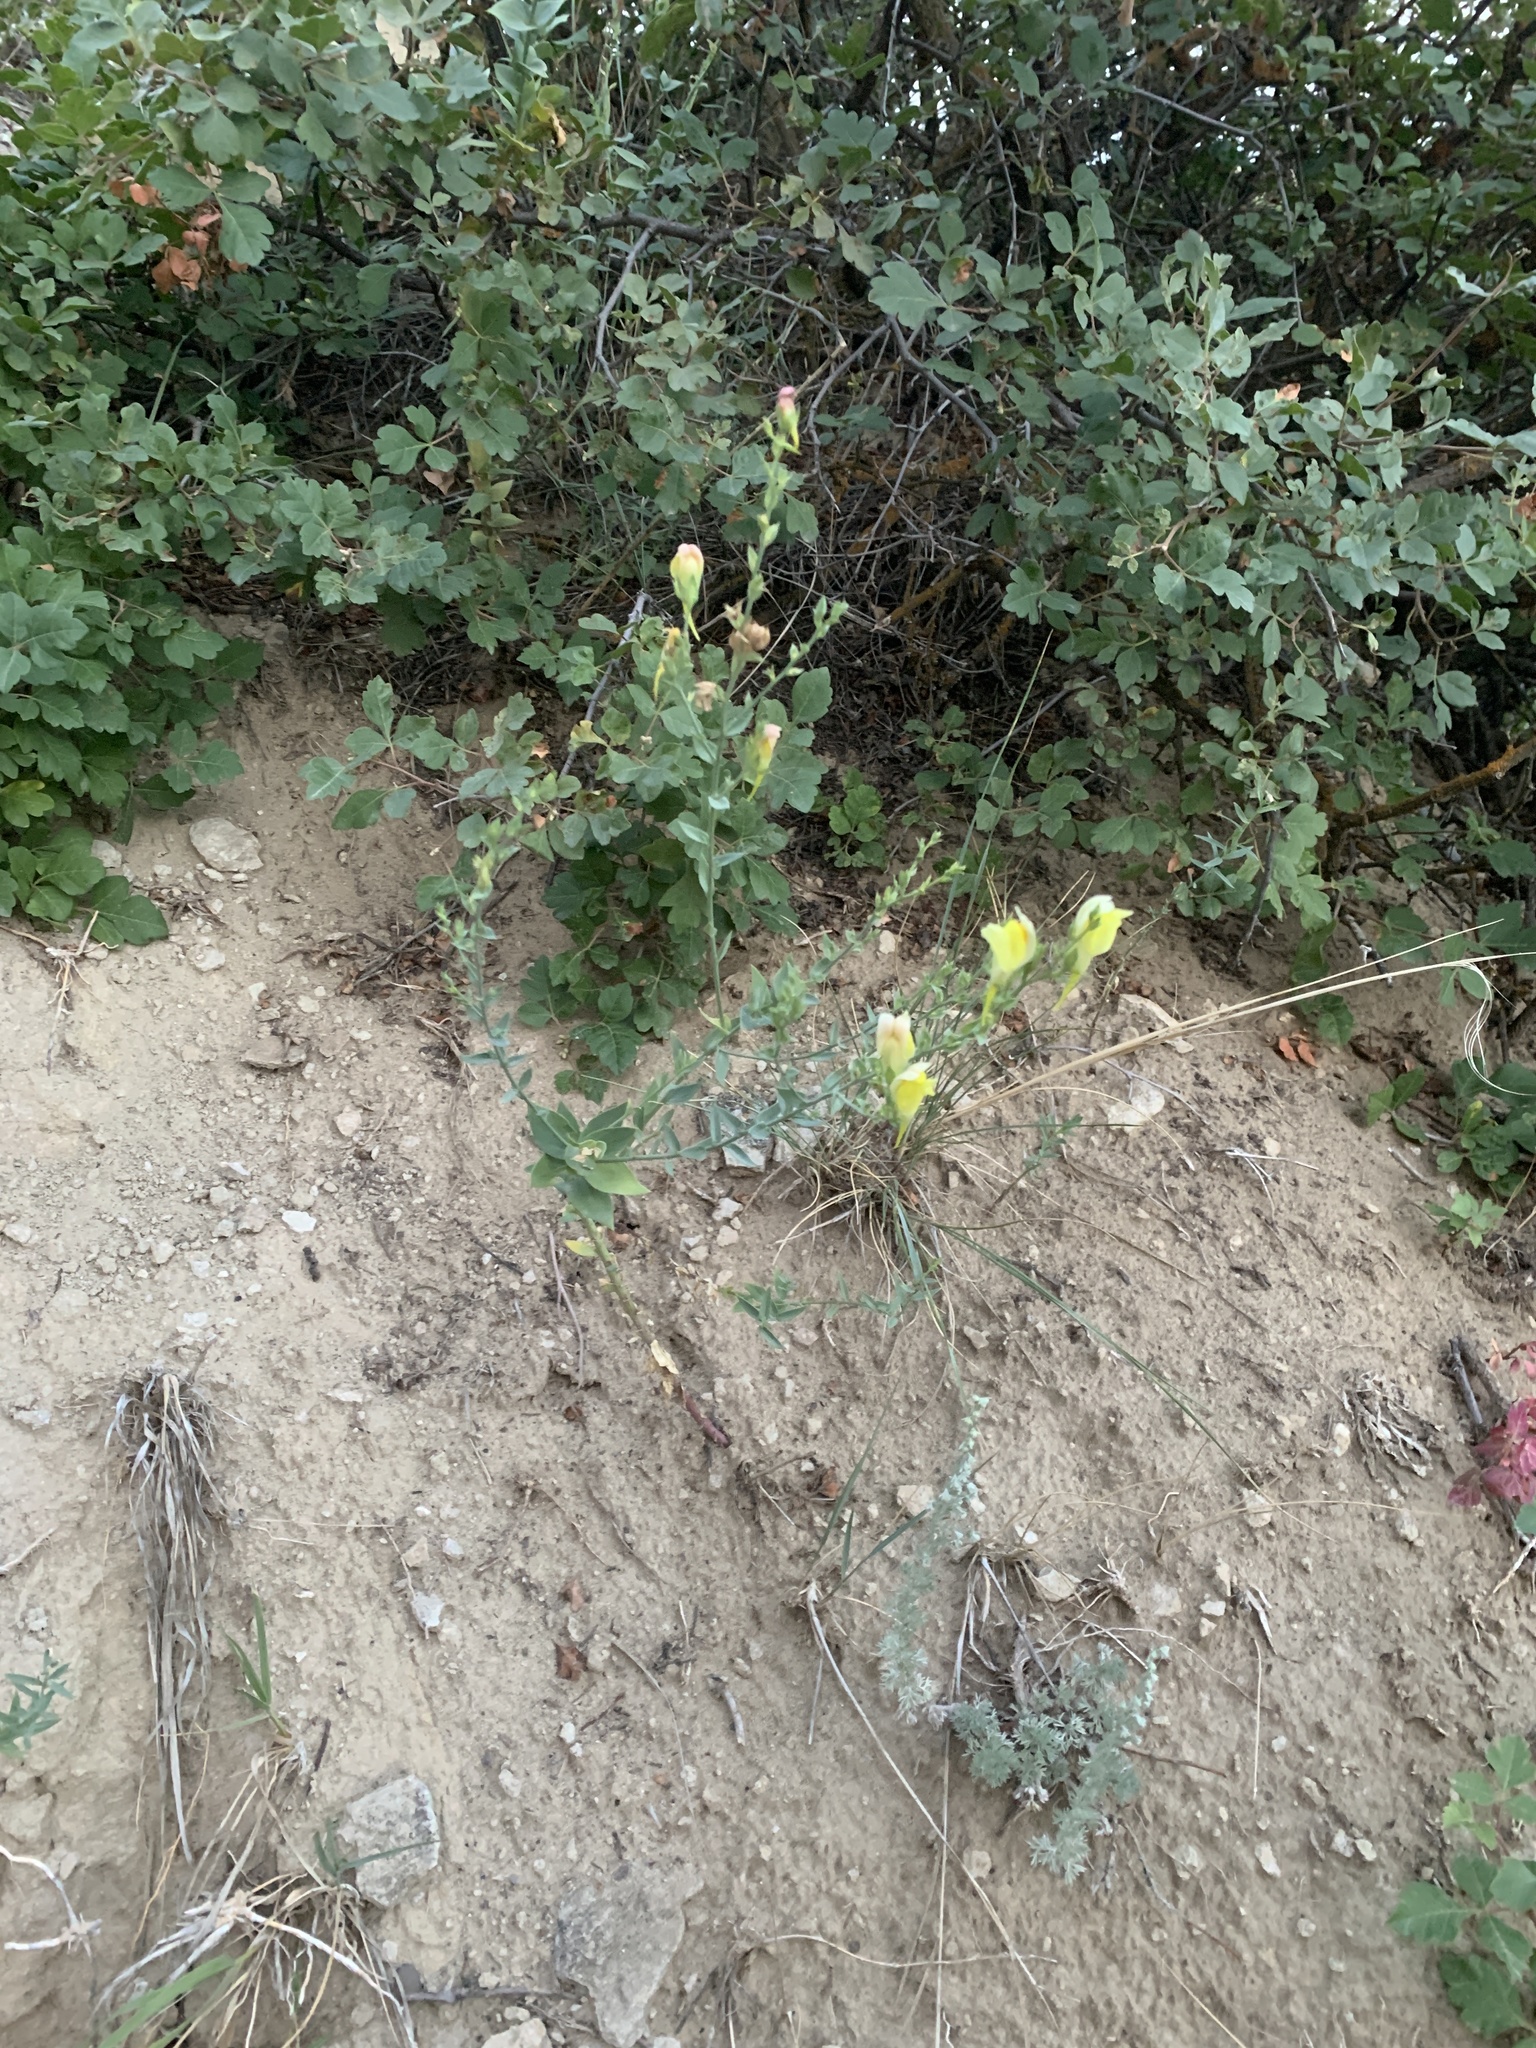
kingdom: Plantae
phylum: Tracheophyta
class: Magnoliopsida
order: Lamiales
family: Plantaginaceae
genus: Linaria
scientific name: Linaria dalmatica
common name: Dalmatian toadflax
